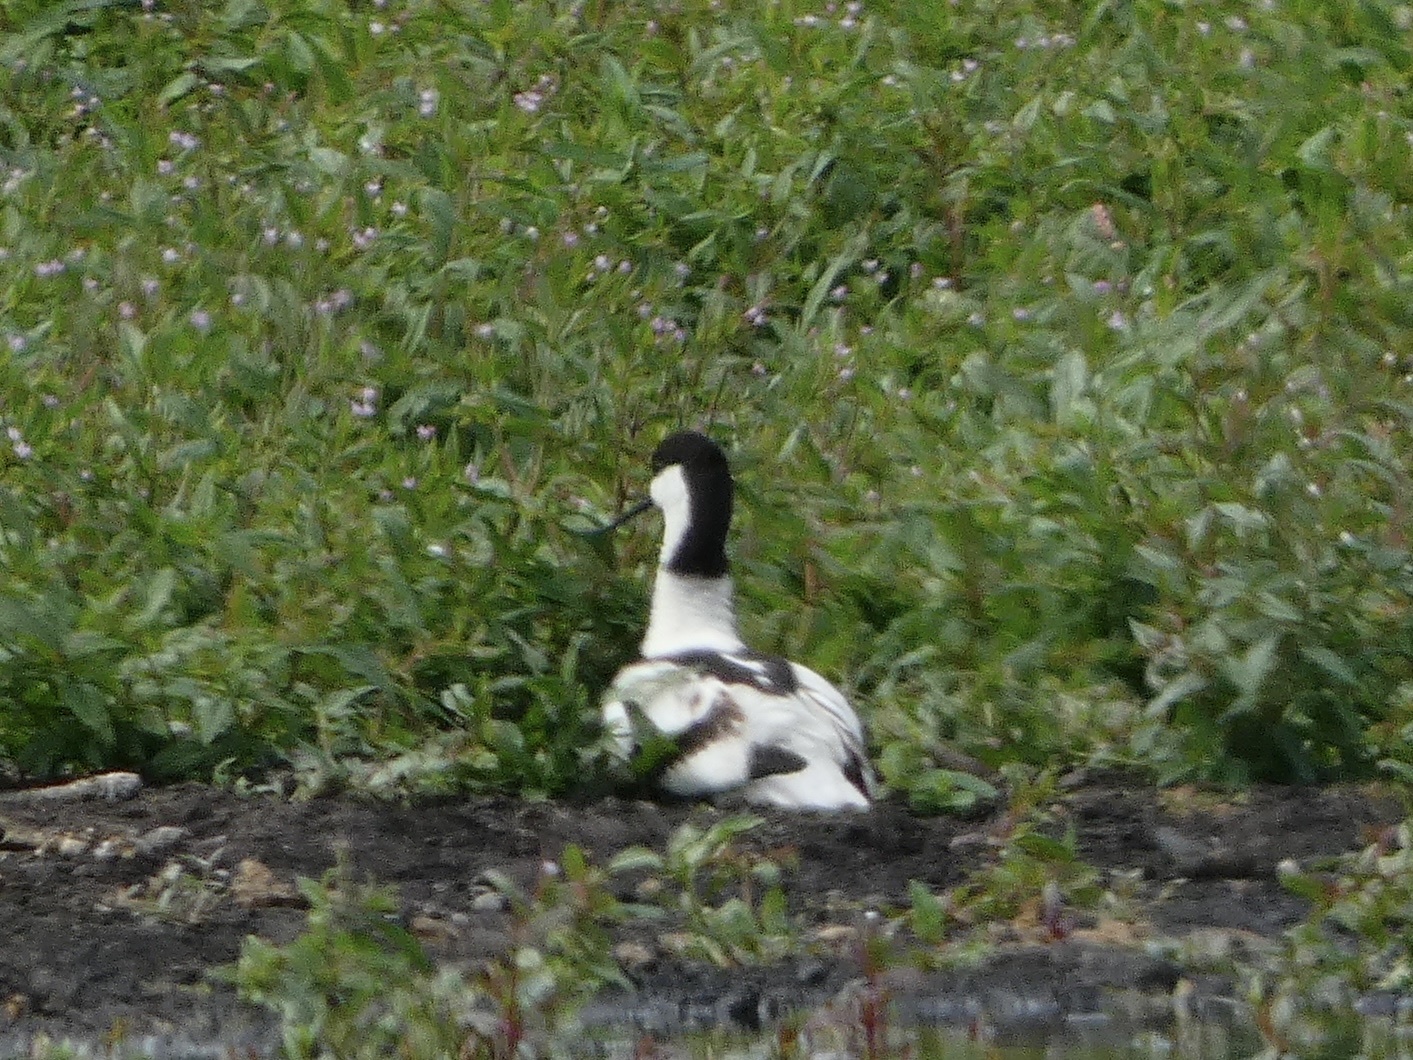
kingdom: Animalia
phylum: Chordata
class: Aves
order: Charadriiformes
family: Recurvirostridae
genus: Recurvirostra
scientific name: Recurvirostra avosetta
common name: Pied avocet
